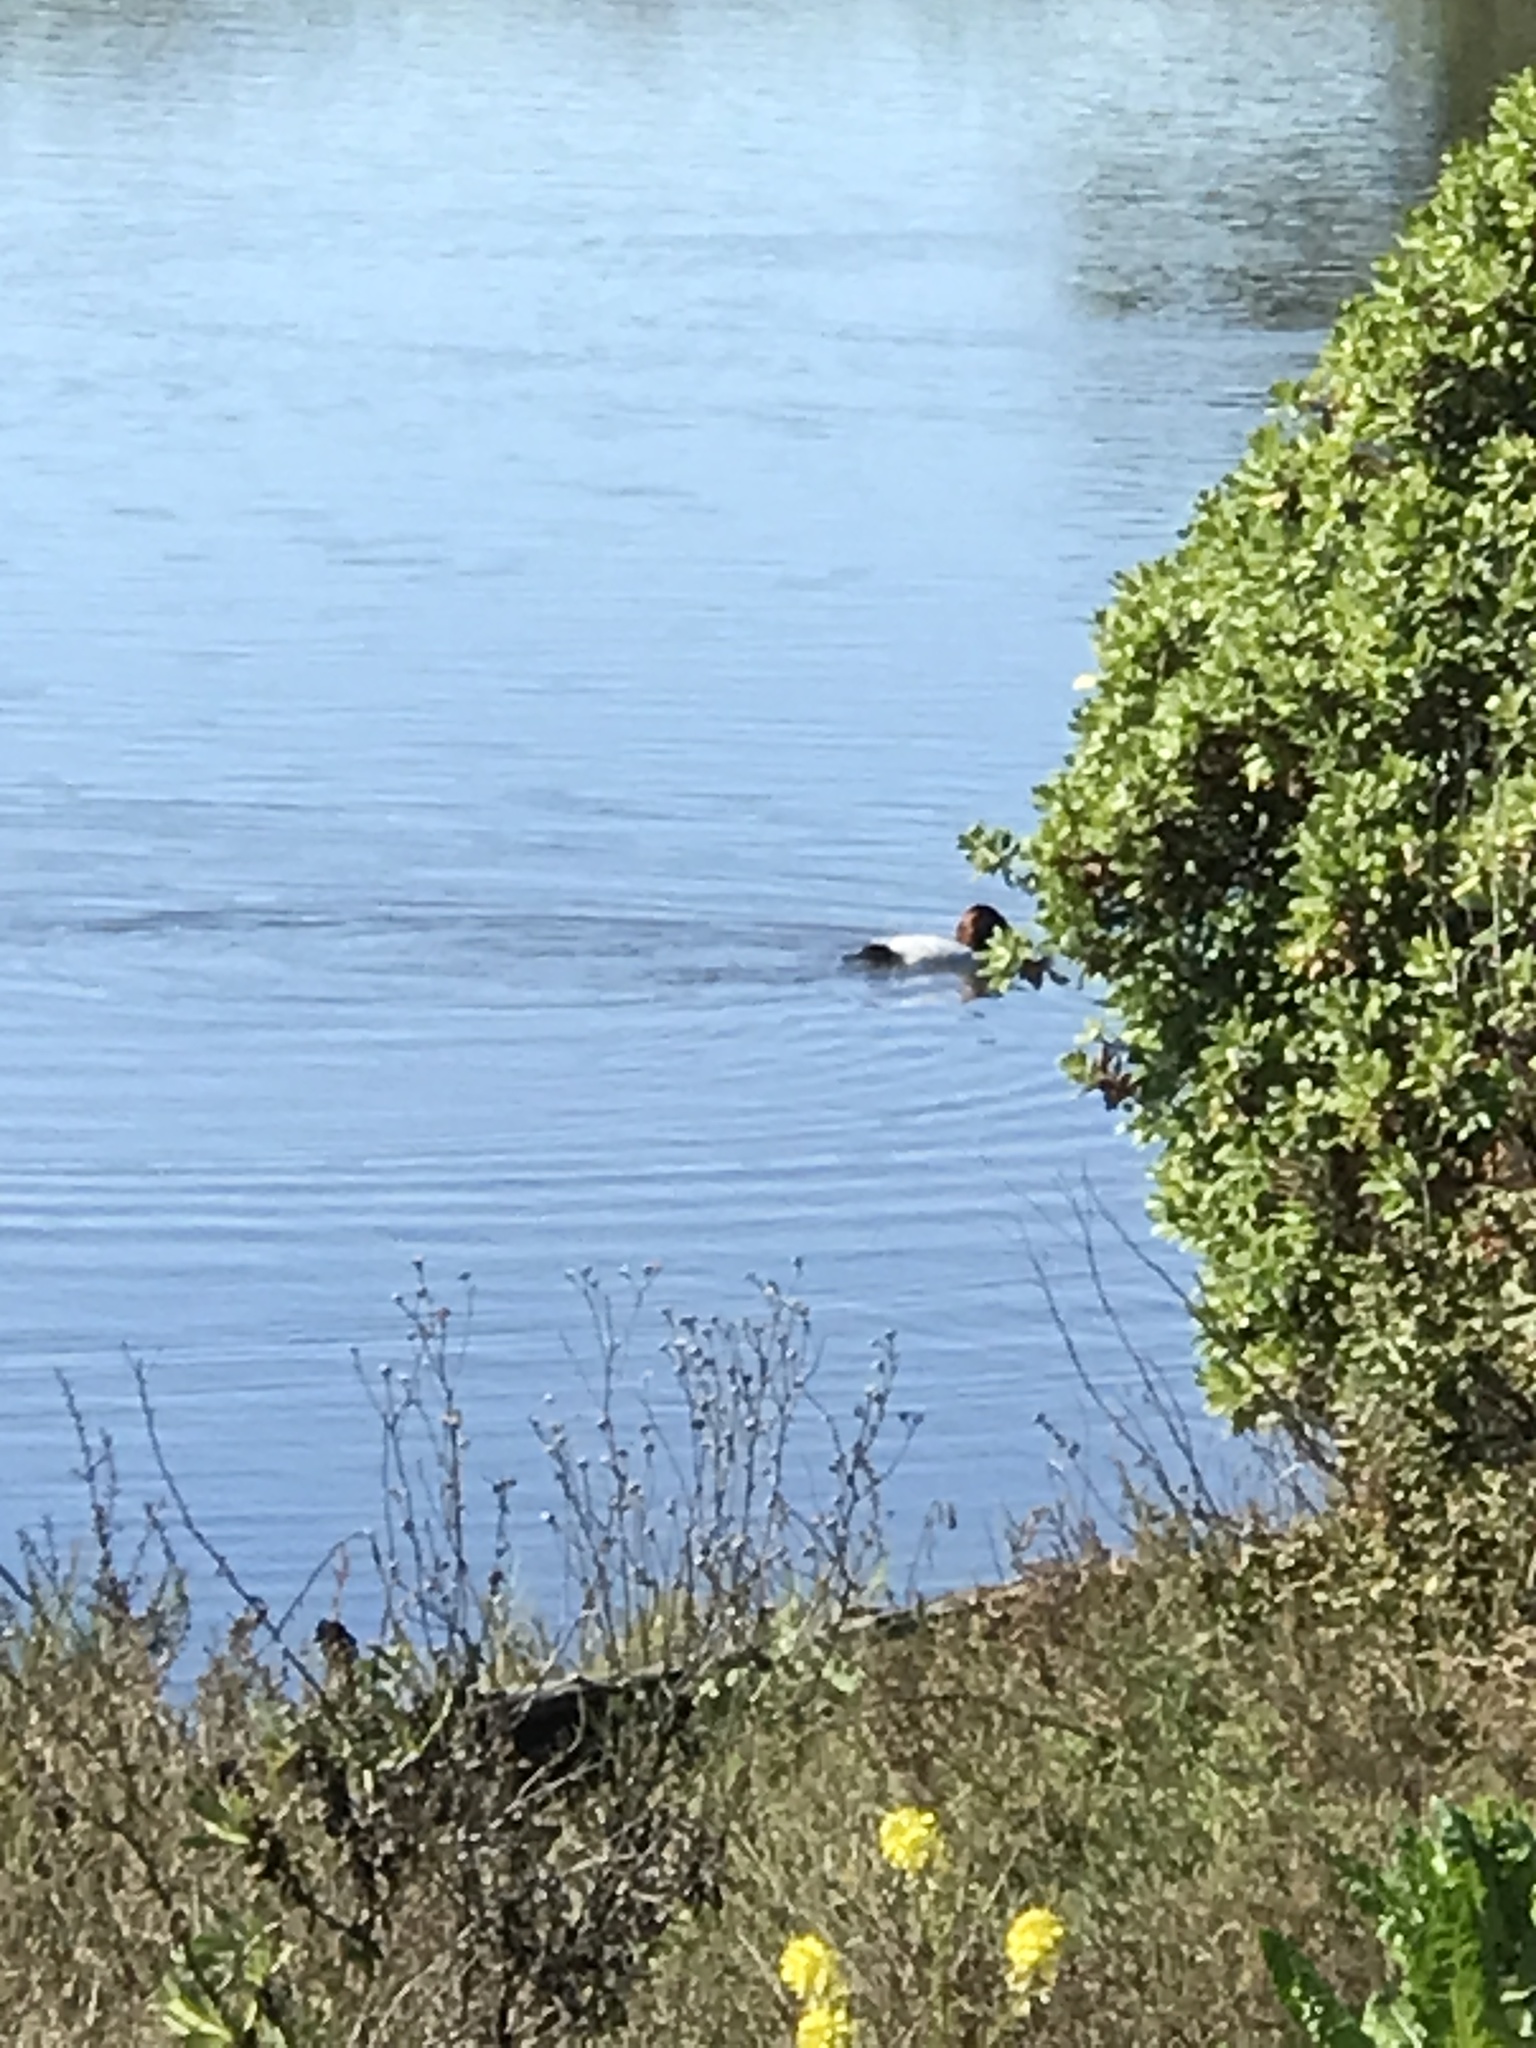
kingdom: Animalia
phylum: Chordata
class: Aves
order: Anseriformes
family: Anatidae
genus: Aythya
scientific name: Aythya valisineria
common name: Canvasback
